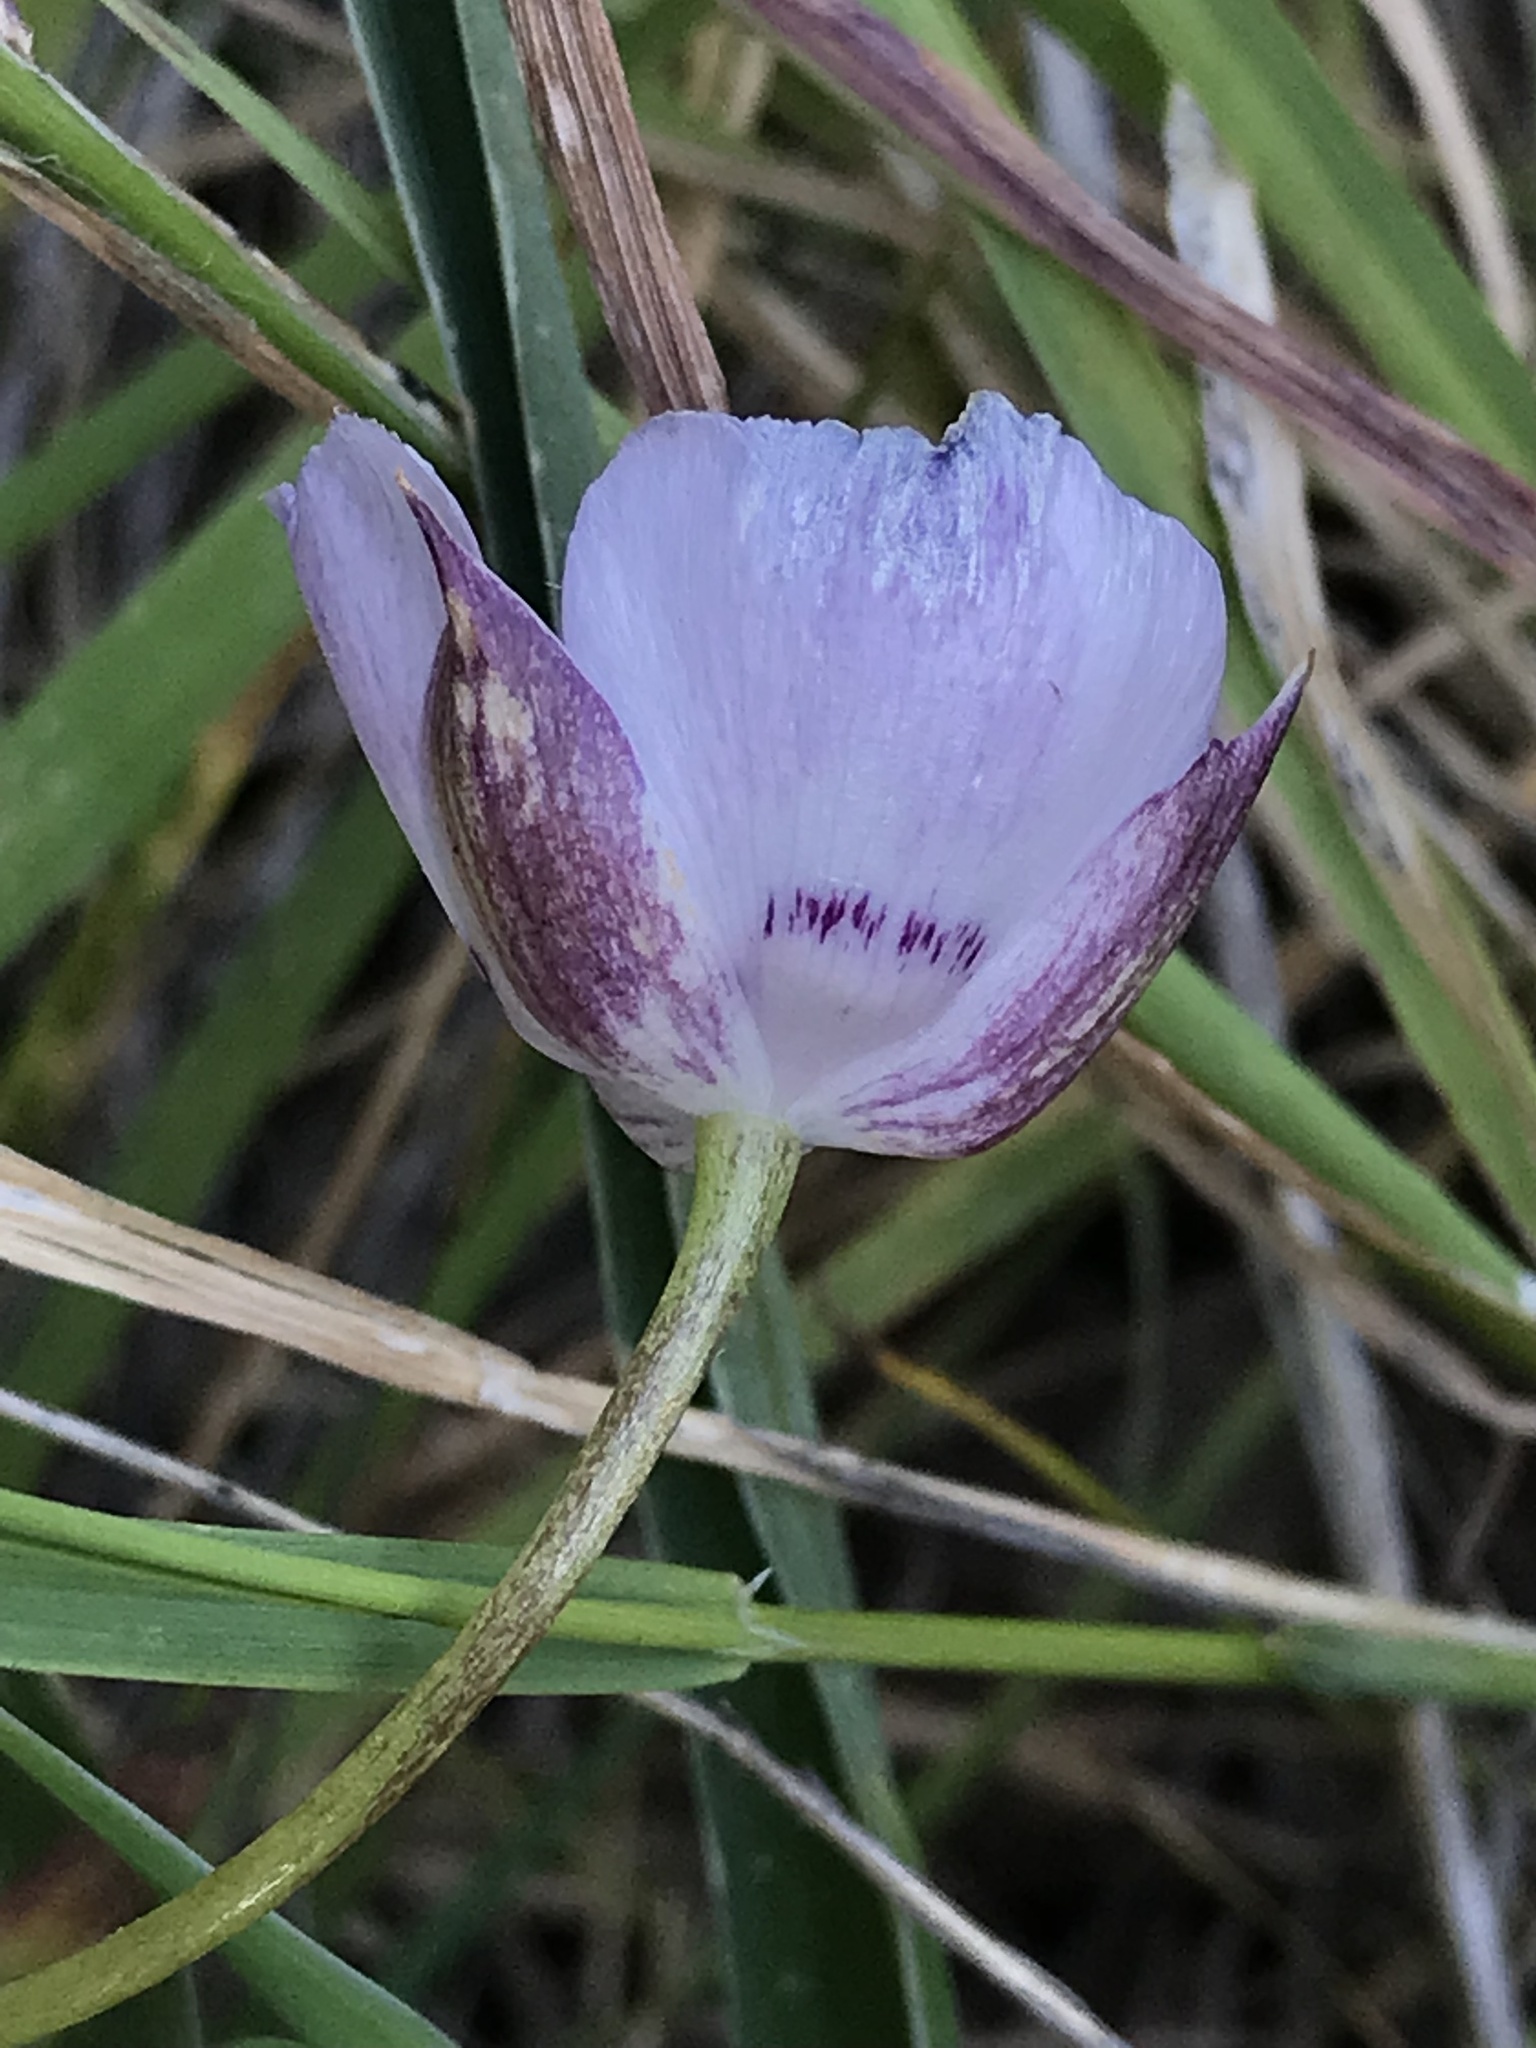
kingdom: Plantae
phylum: Tracheophyta
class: Liliopsida
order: Liliales
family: Liliaceae
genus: Calochortus
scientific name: Calochortus uniflorus
